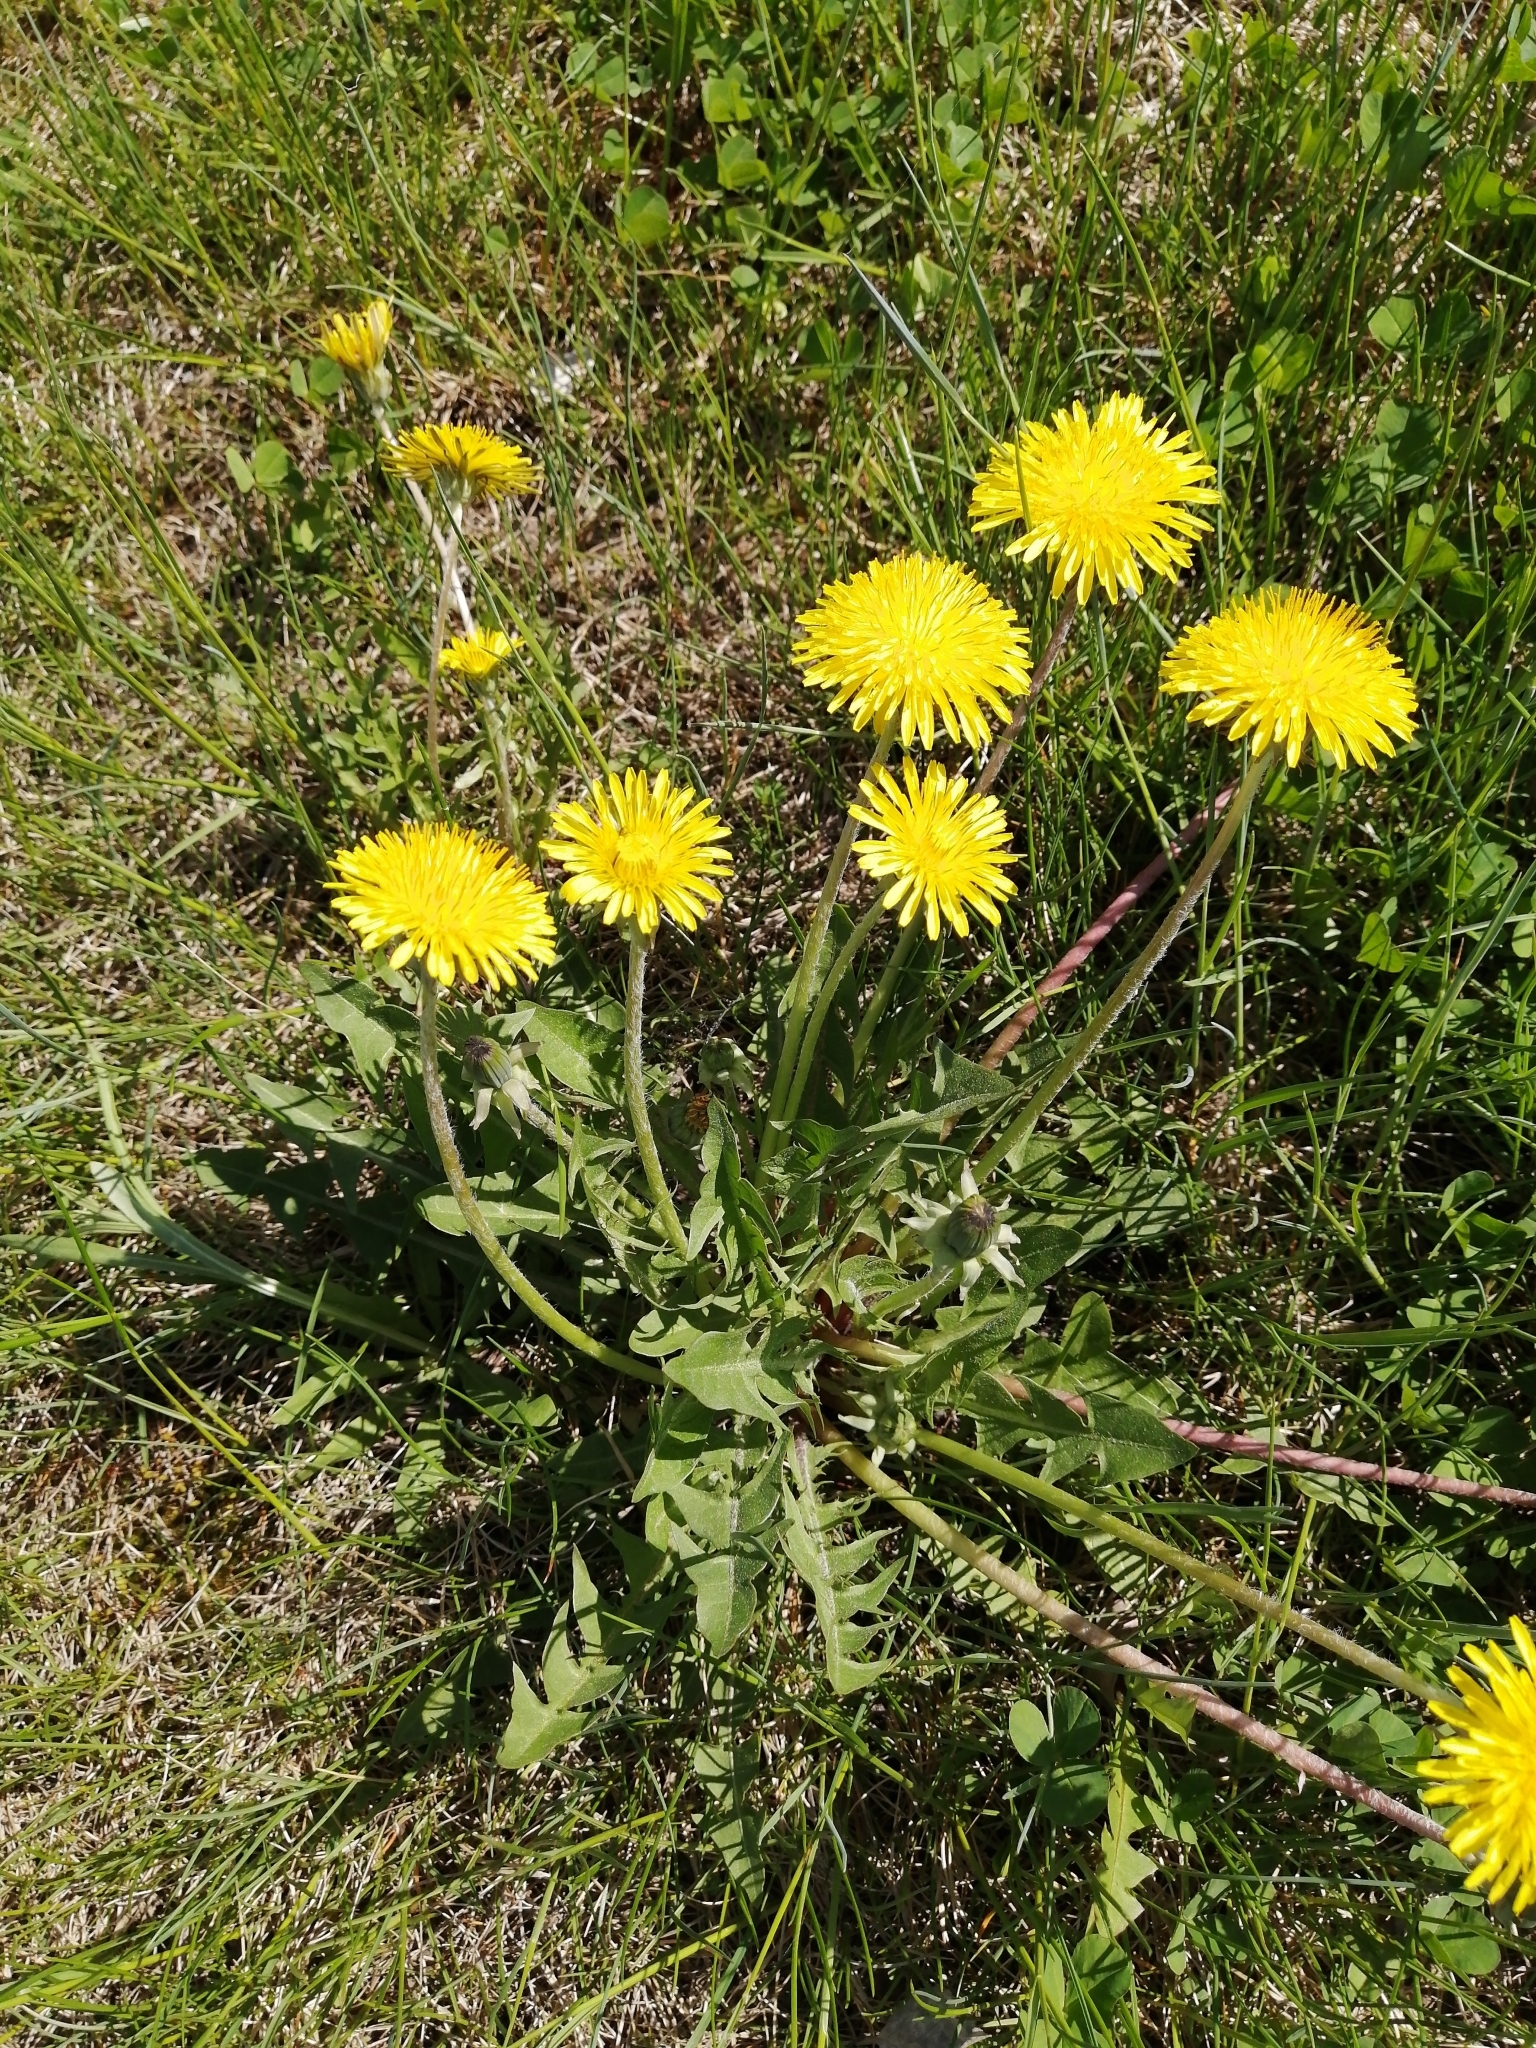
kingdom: Plantae
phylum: Tracheophyta
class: Magnoliopsida
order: Asterales
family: Asteraceae
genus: Taraxacum
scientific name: Taraxacum officinale
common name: Common dandelion
